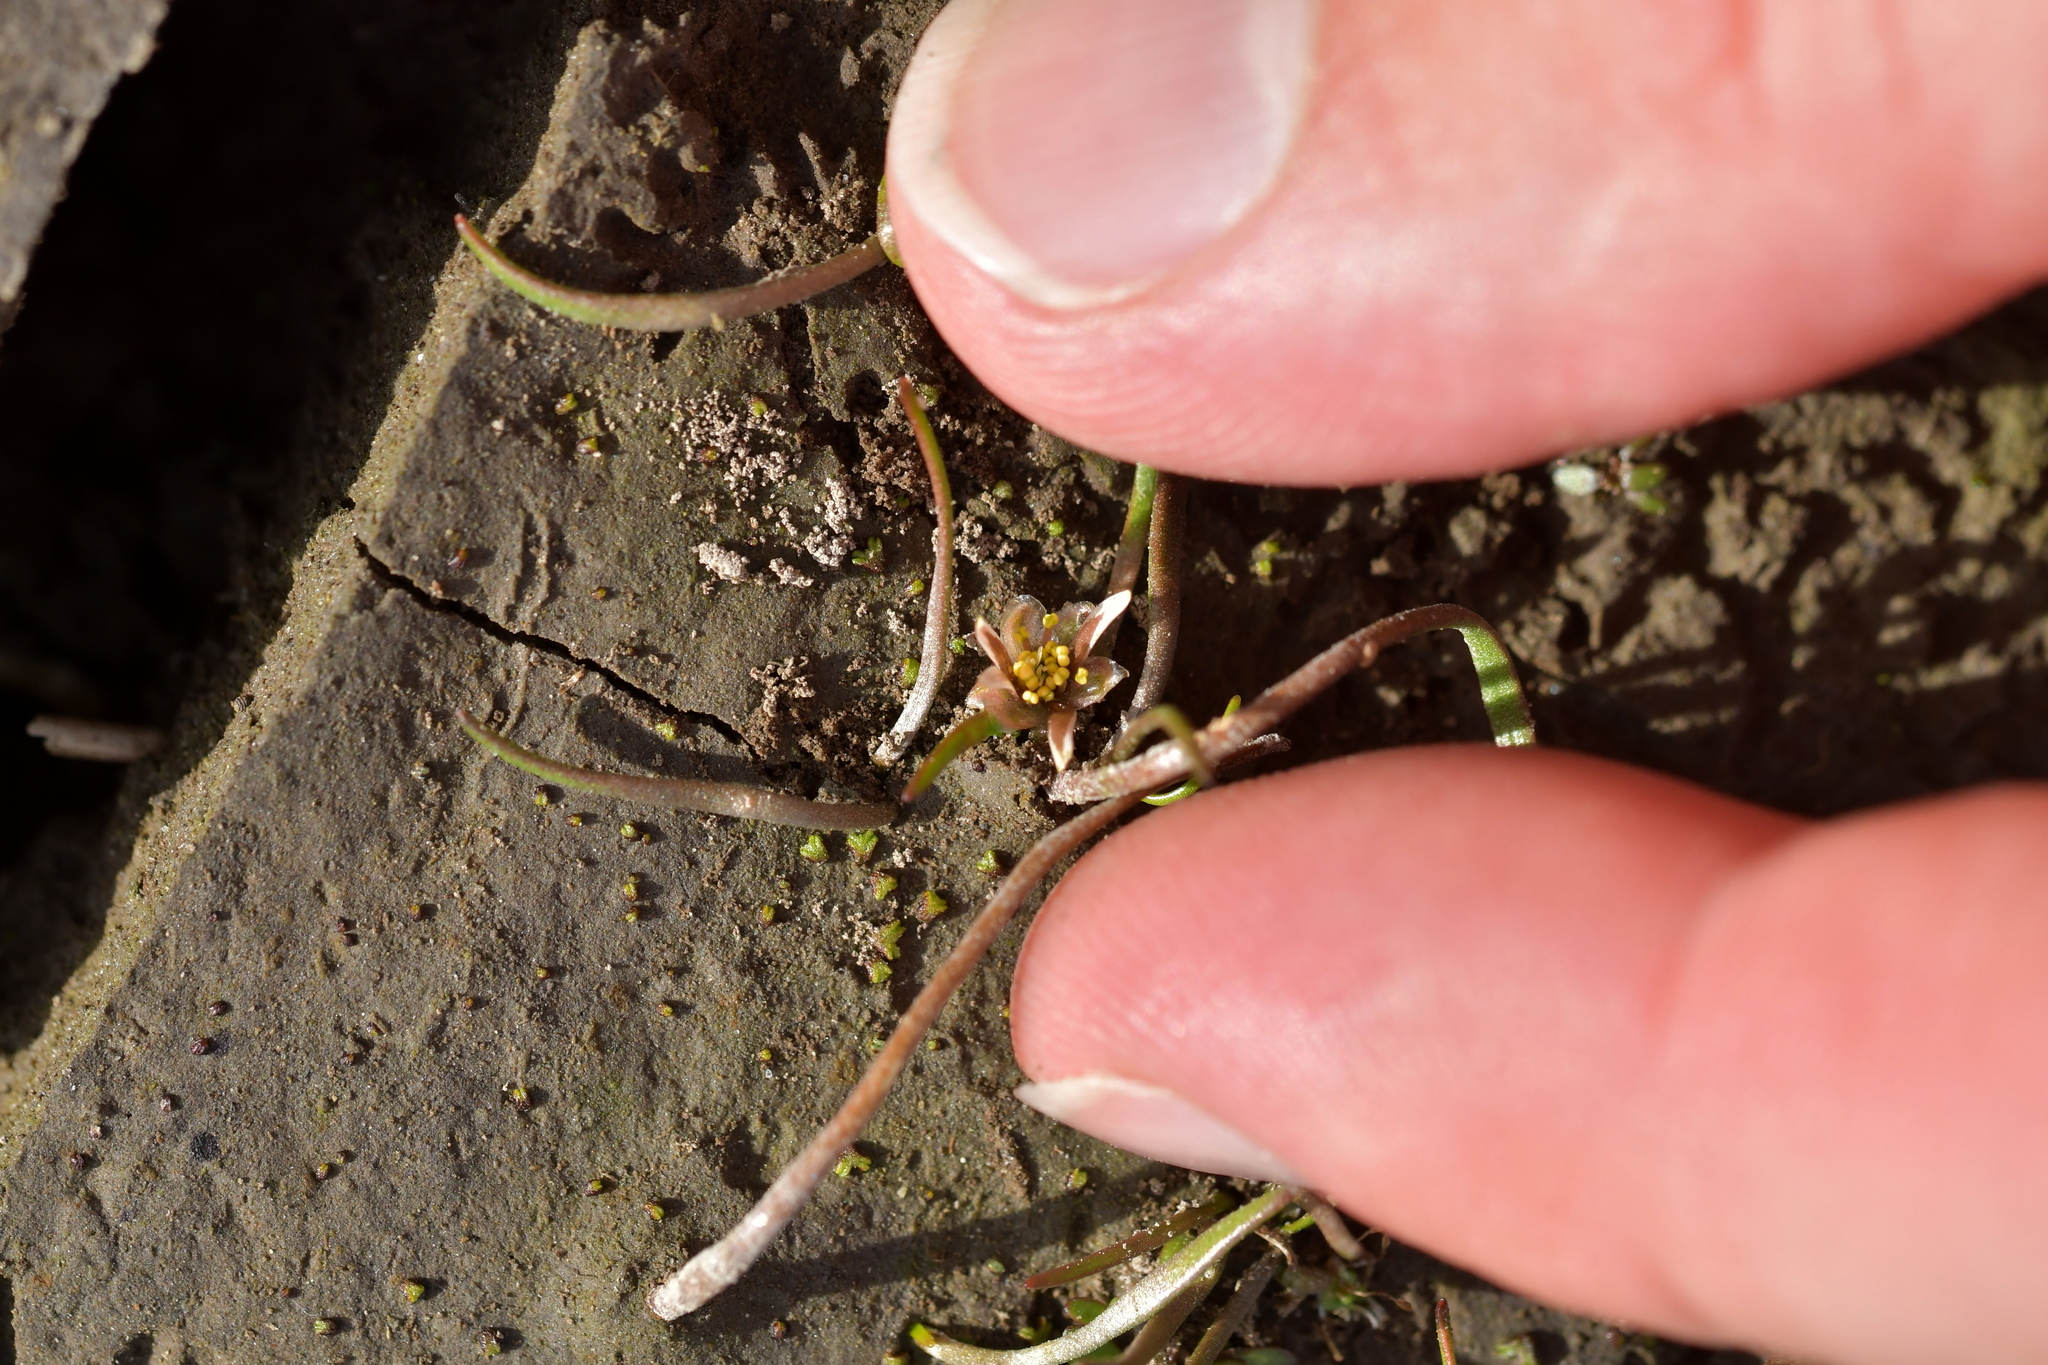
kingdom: Plantae
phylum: Tracheophyta
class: Magnoliopsida
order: Ranunculales
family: Ranunculaceae
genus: Ranunculus
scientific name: Ranunculus limosella
